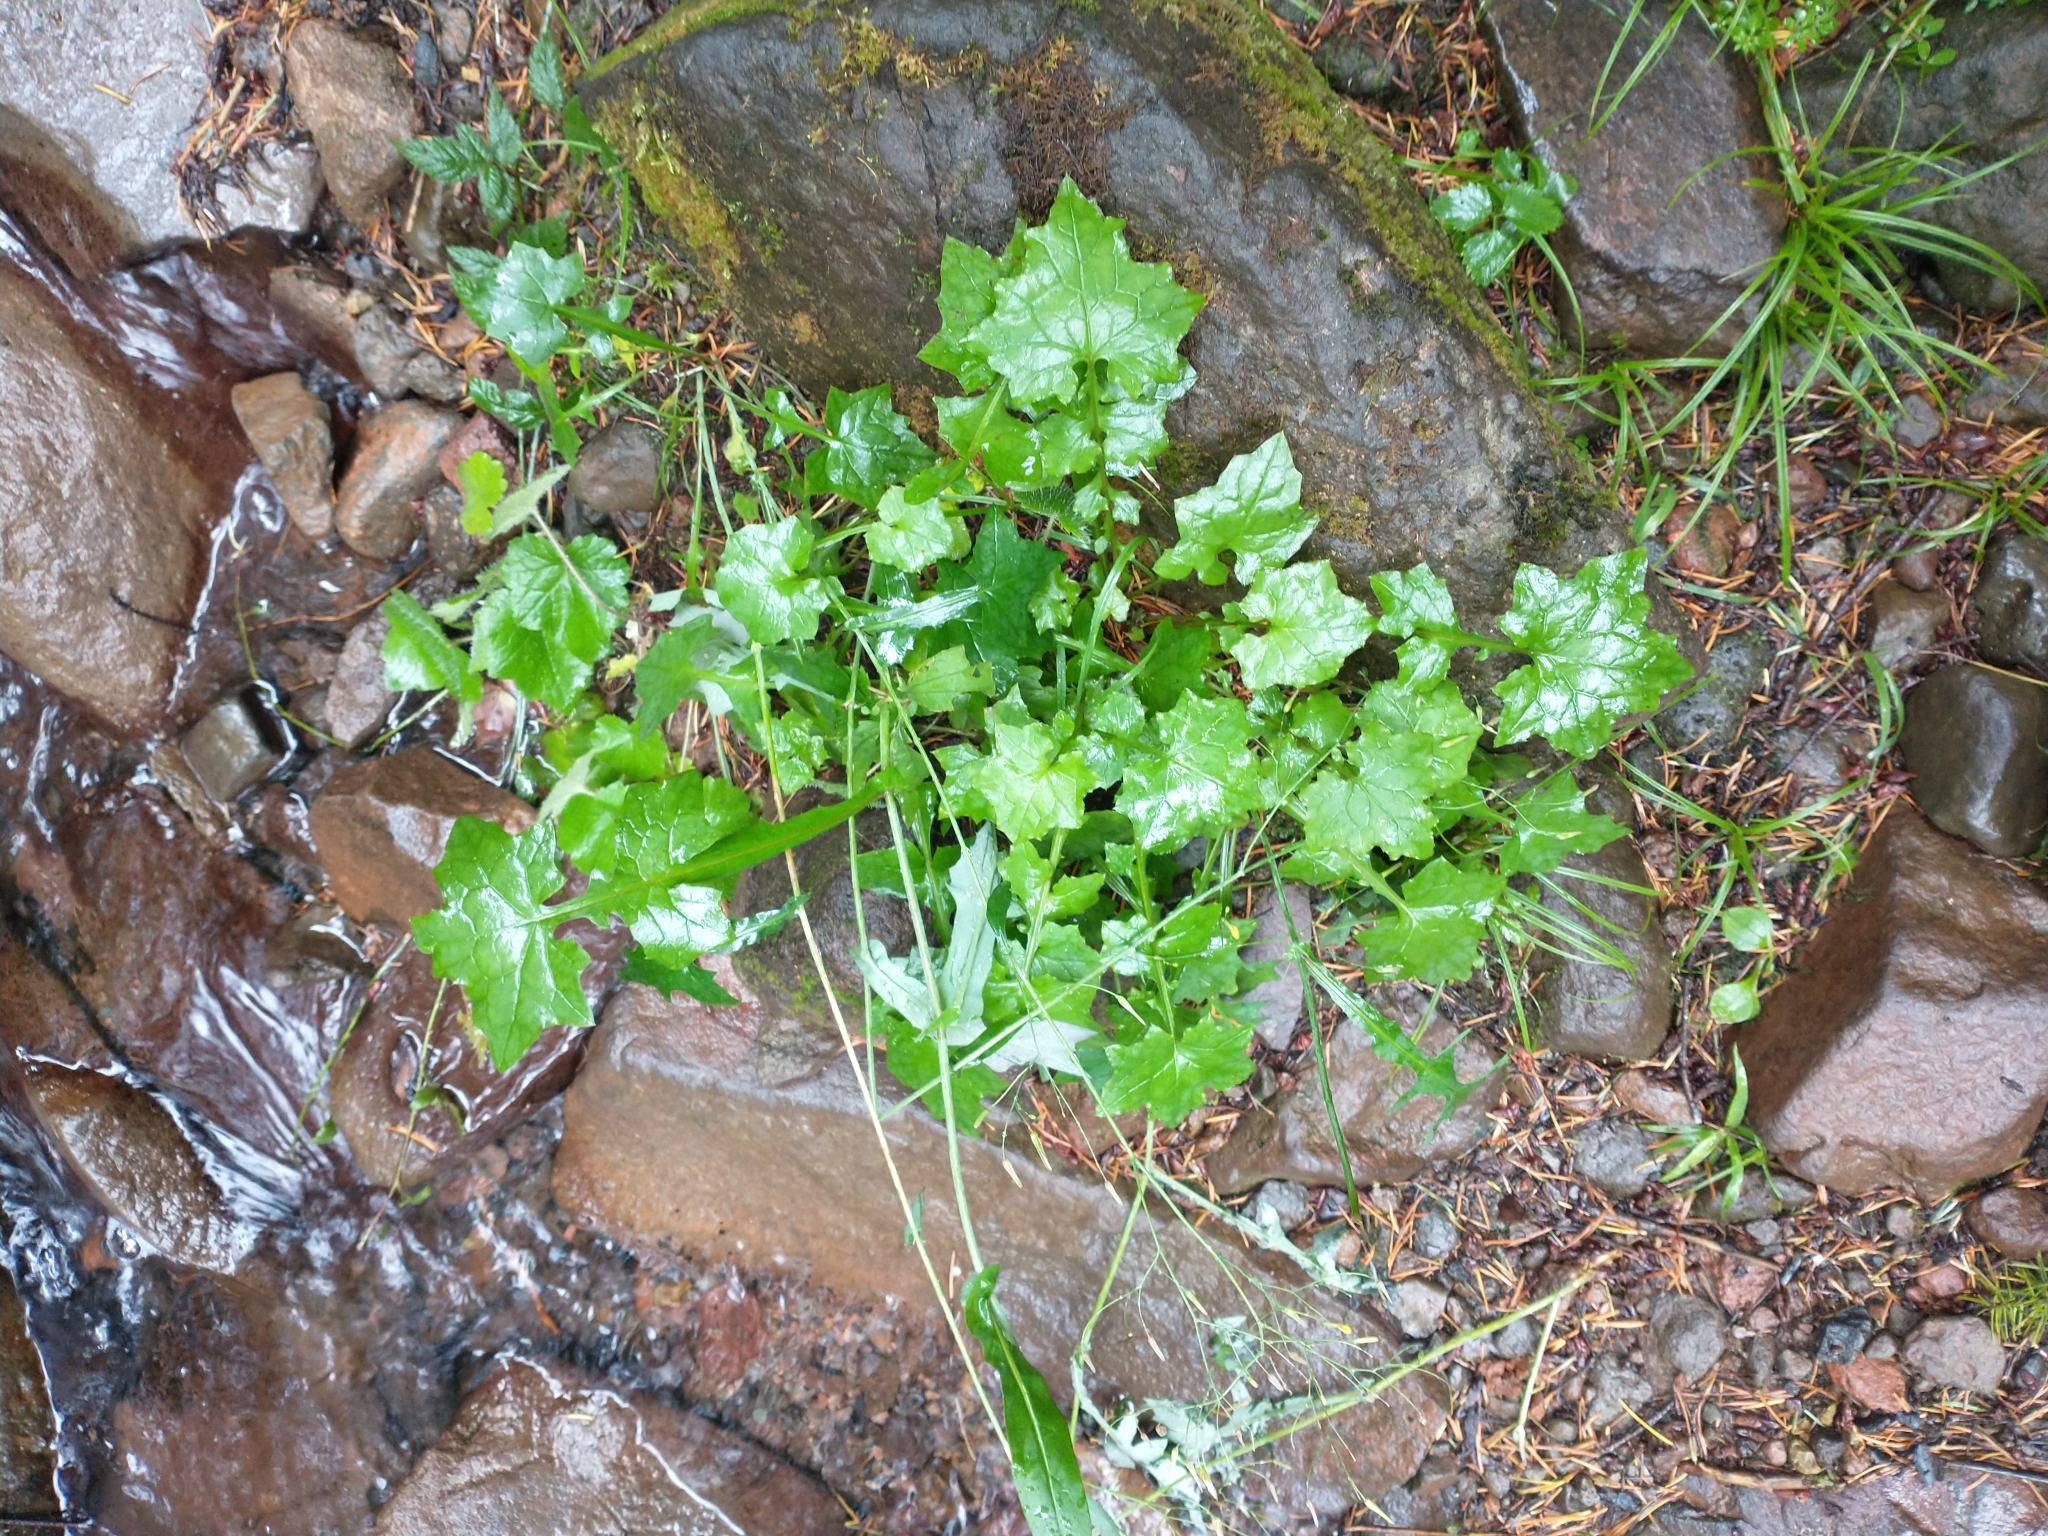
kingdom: Plantae
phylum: Tracheophyta
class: Magnoliopsida
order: Asterales
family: Asteraceae
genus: Mycelis
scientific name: Mycelis muralis
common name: Wall lettuce
